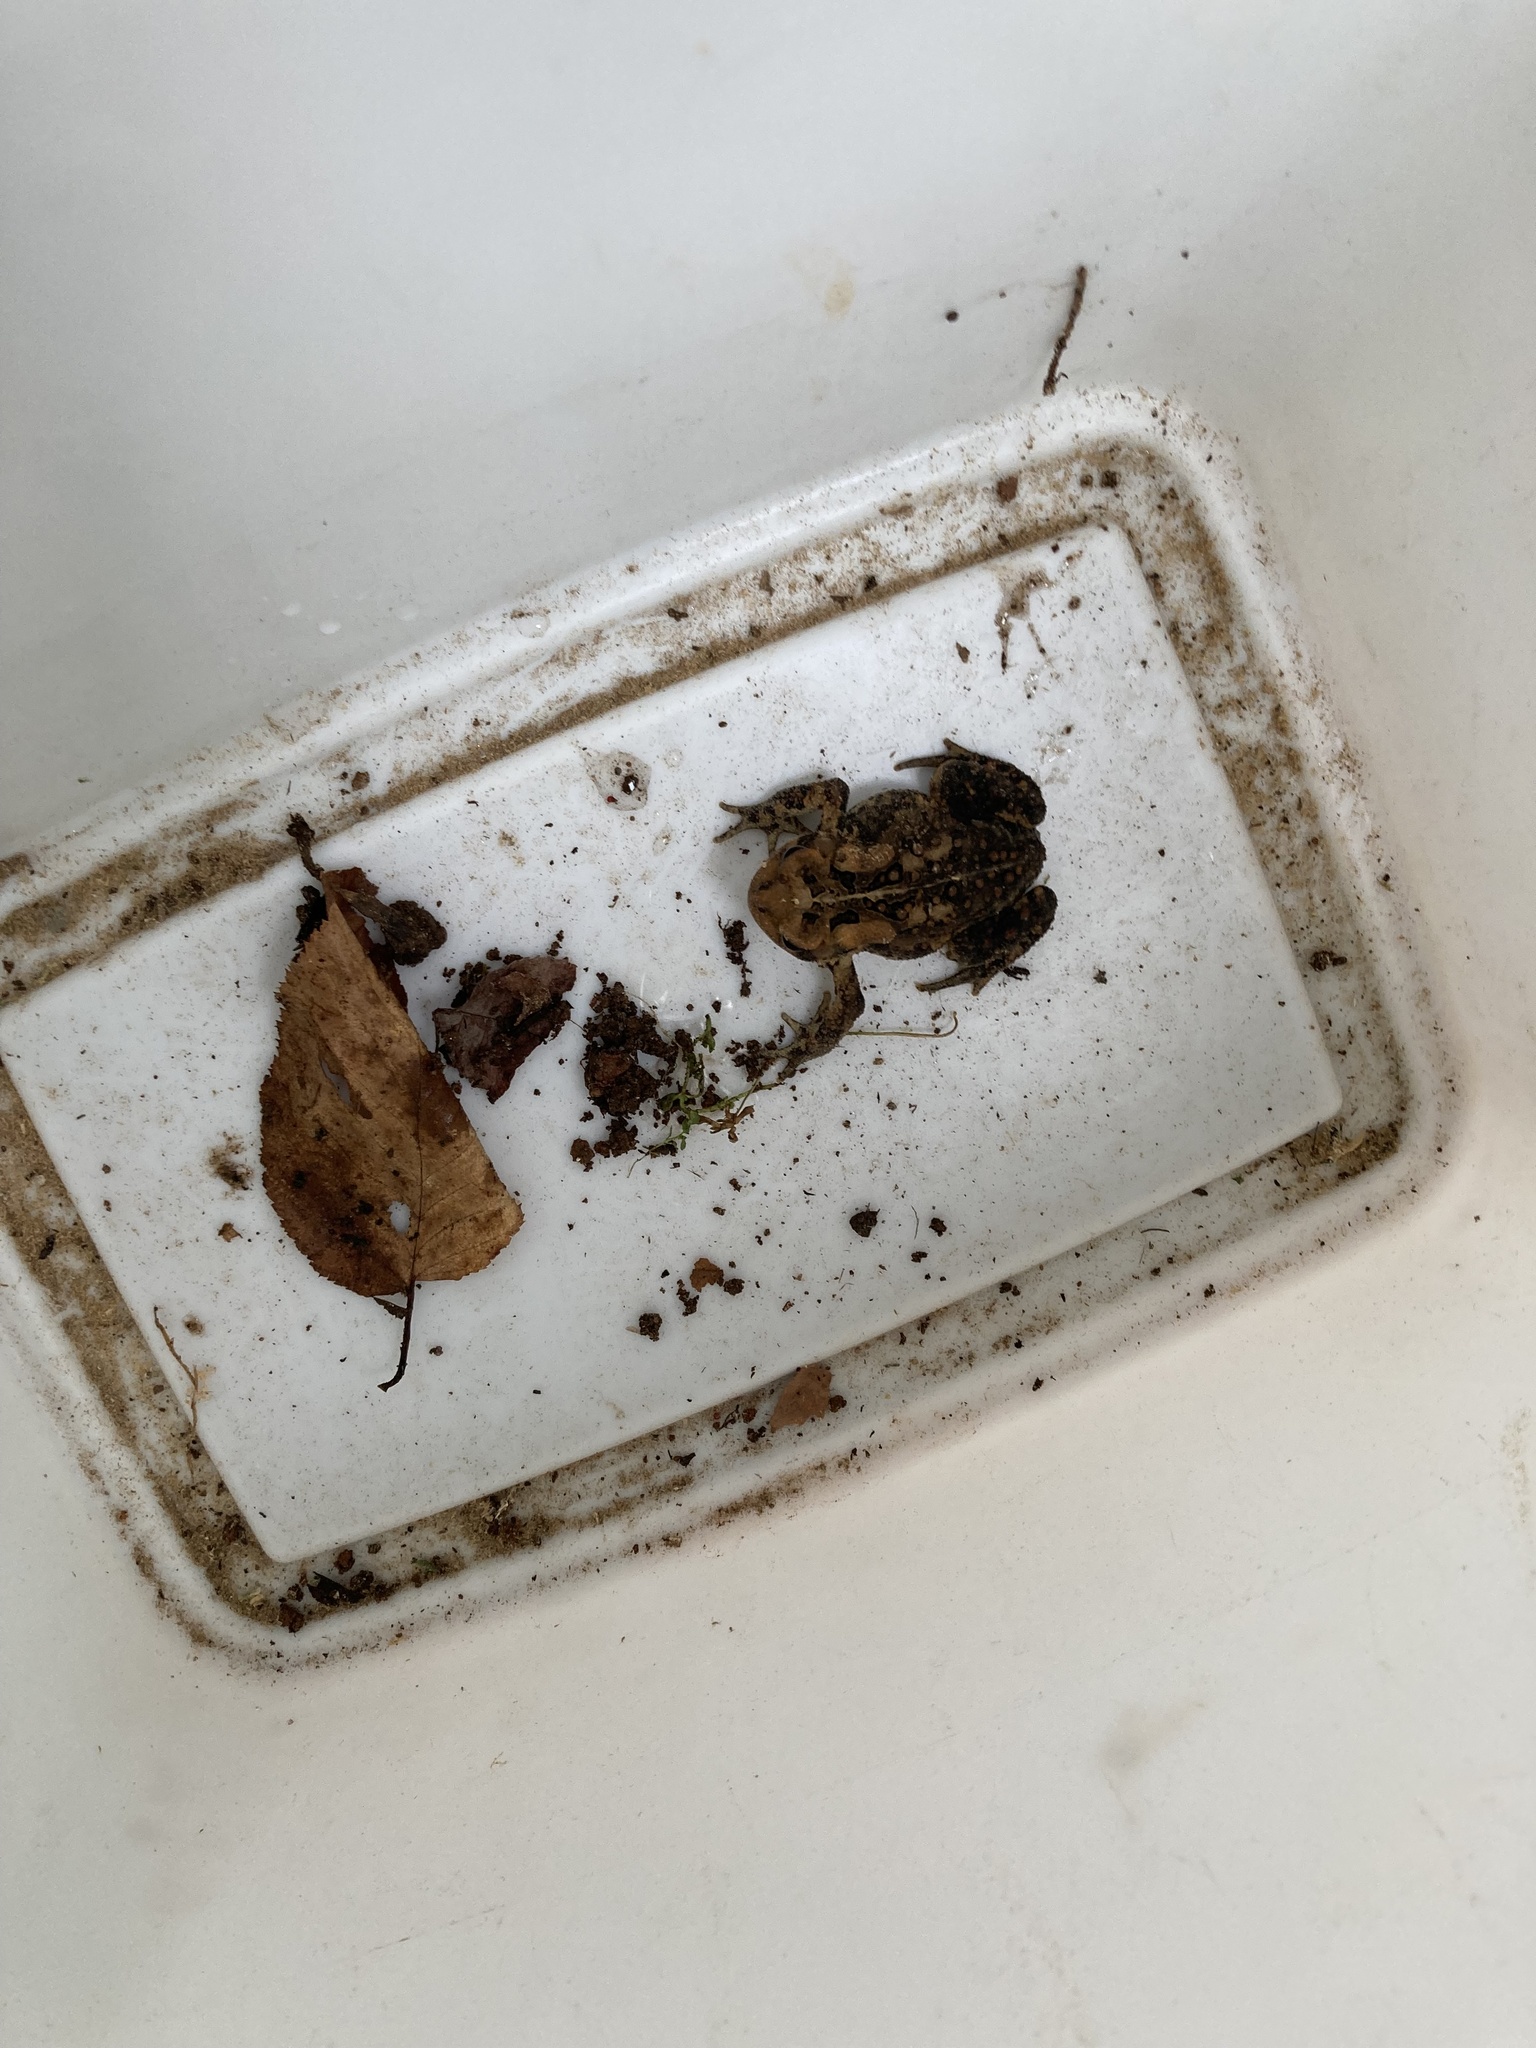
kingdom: Animalia
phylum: Chordata
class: Amphibia
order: Anura
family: Bufonidae
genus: Anaxyrus
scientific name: Anaxyrus americanus
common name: American toad
